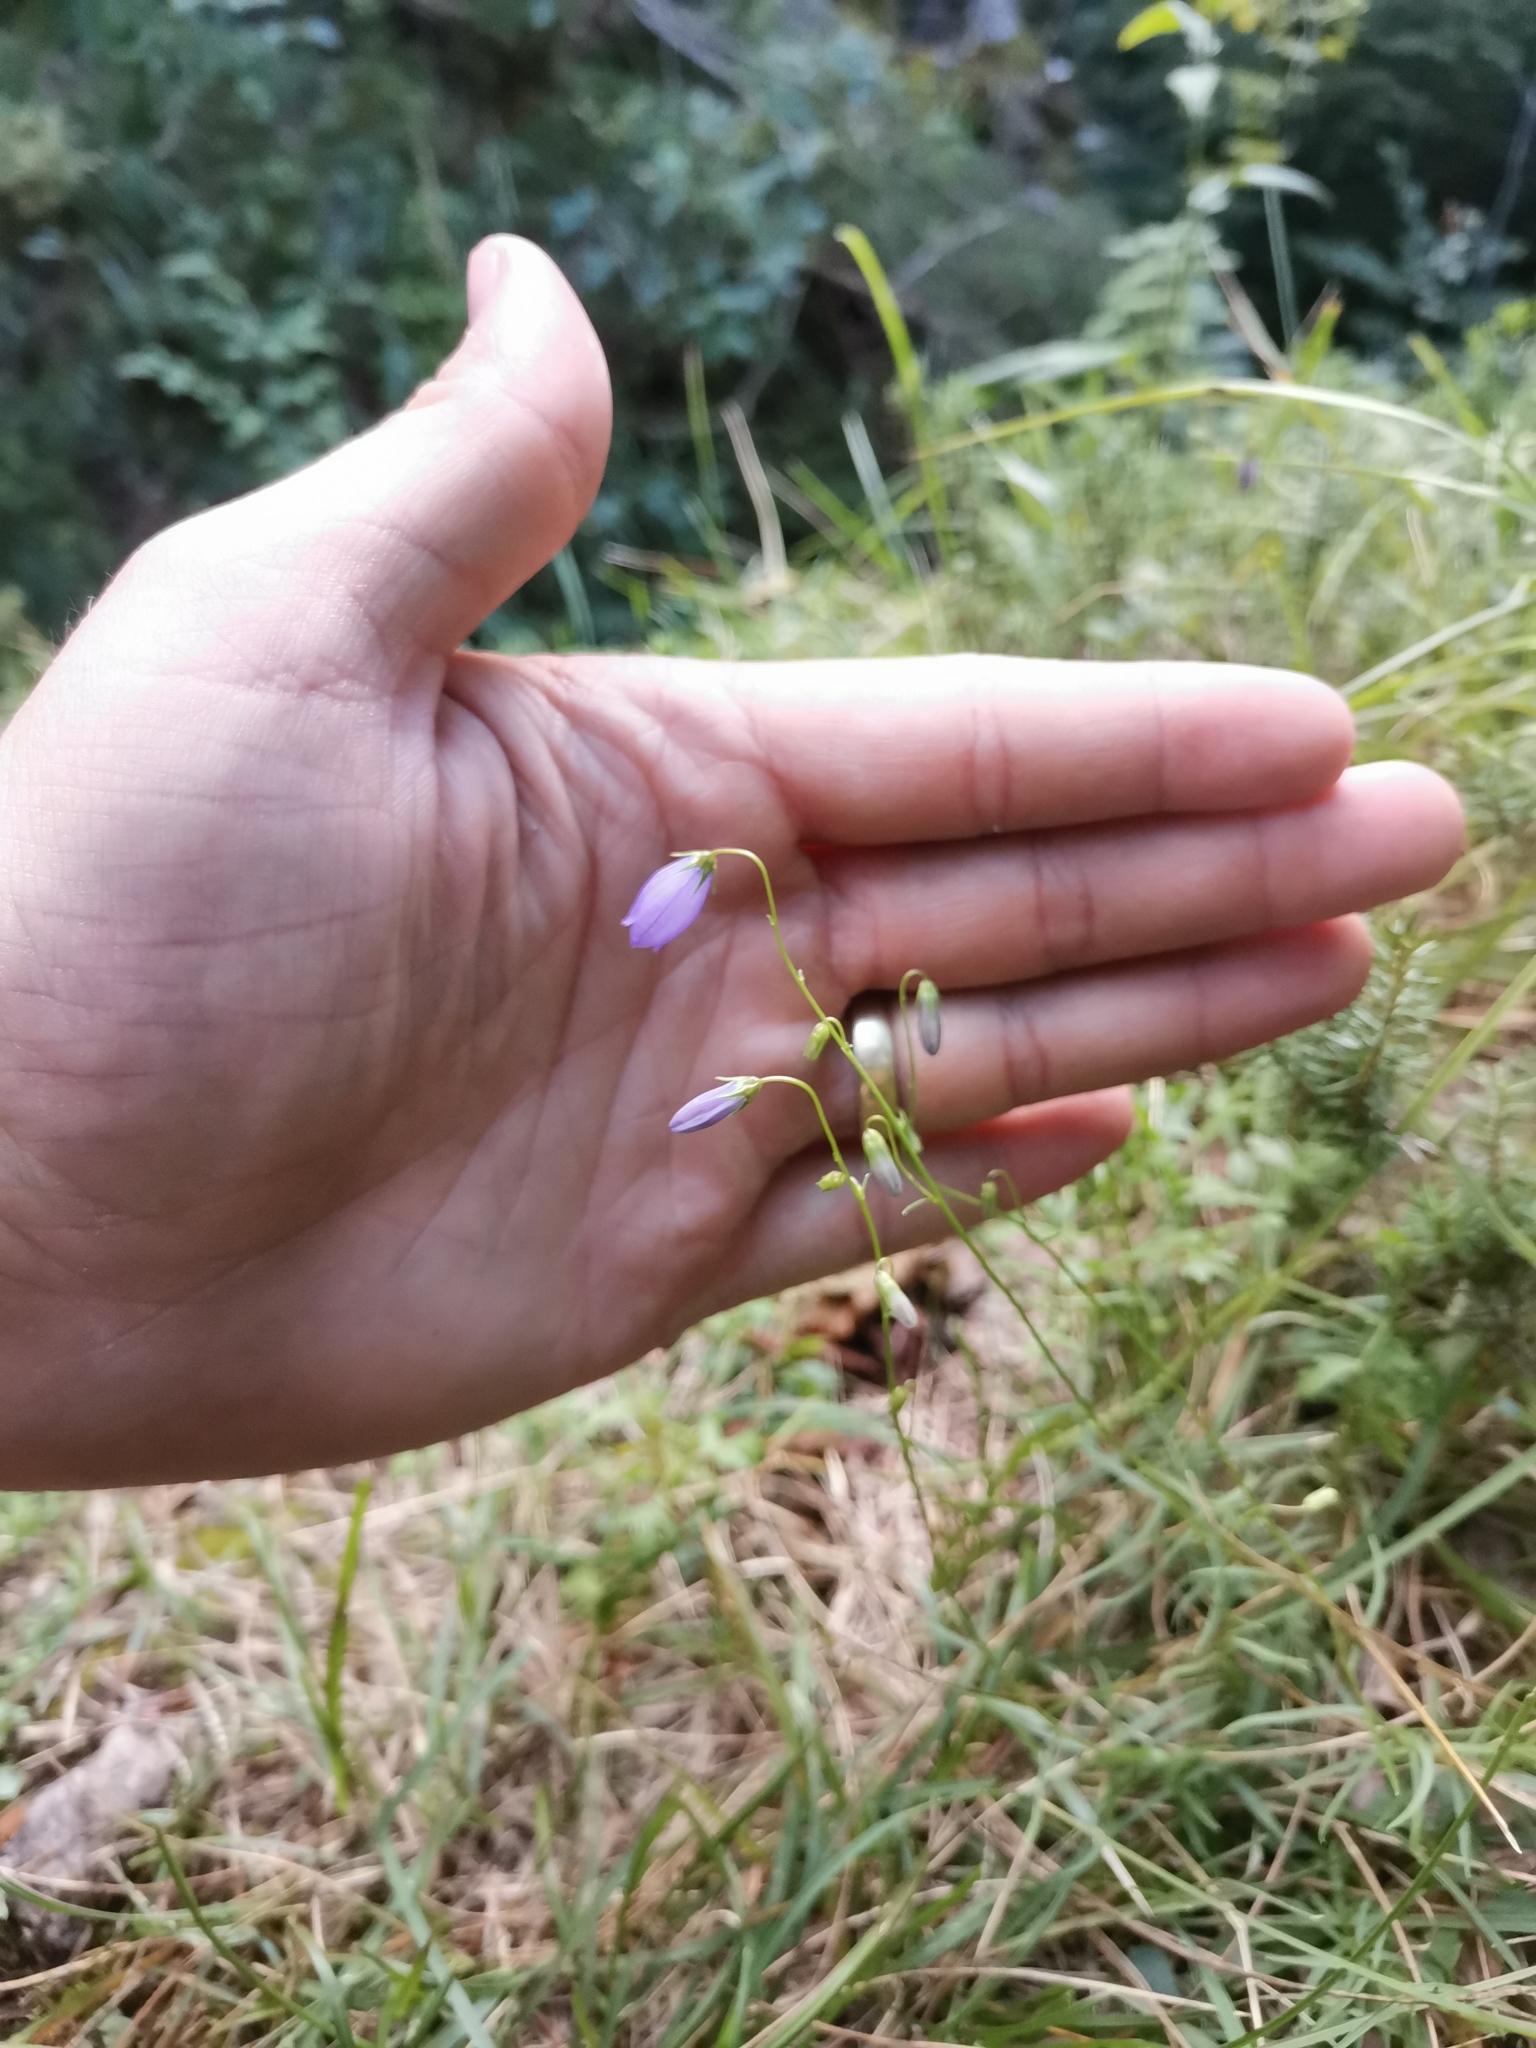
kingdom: Plantae
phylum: Tracheophyta
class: Magnoliopsida
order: Asterales
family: Campanulaceae
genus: Campanula
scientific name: Campanula cespitosa
